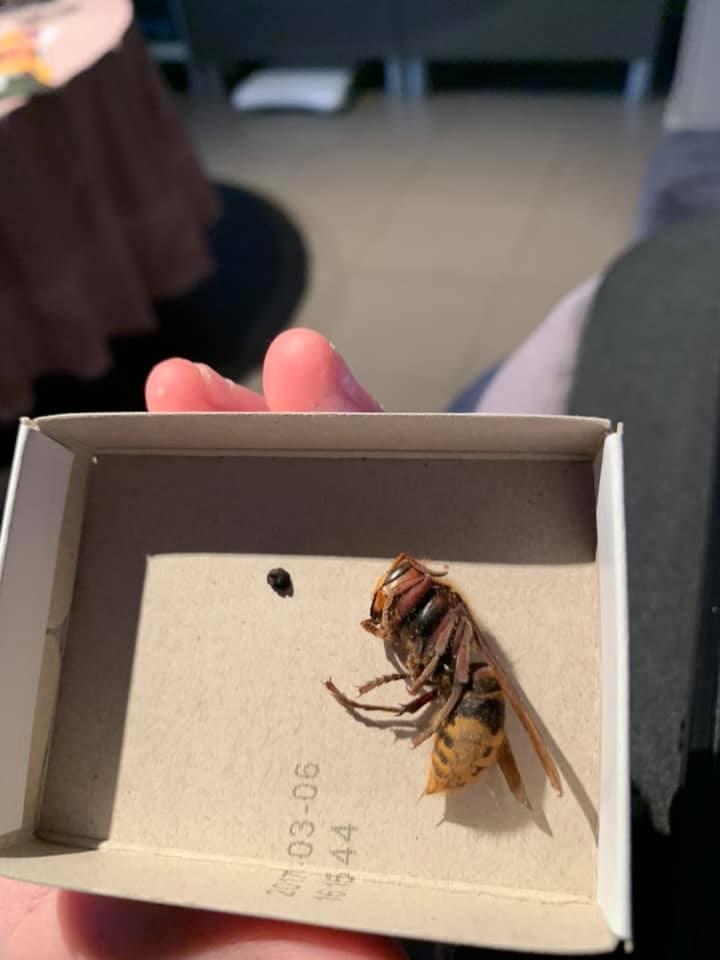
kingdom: Animalia
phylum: Arthropoda
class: Insecta
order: Hymenoptera
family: Vespidae
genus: Vespa
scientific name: Vespa crabro
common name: Hornet
